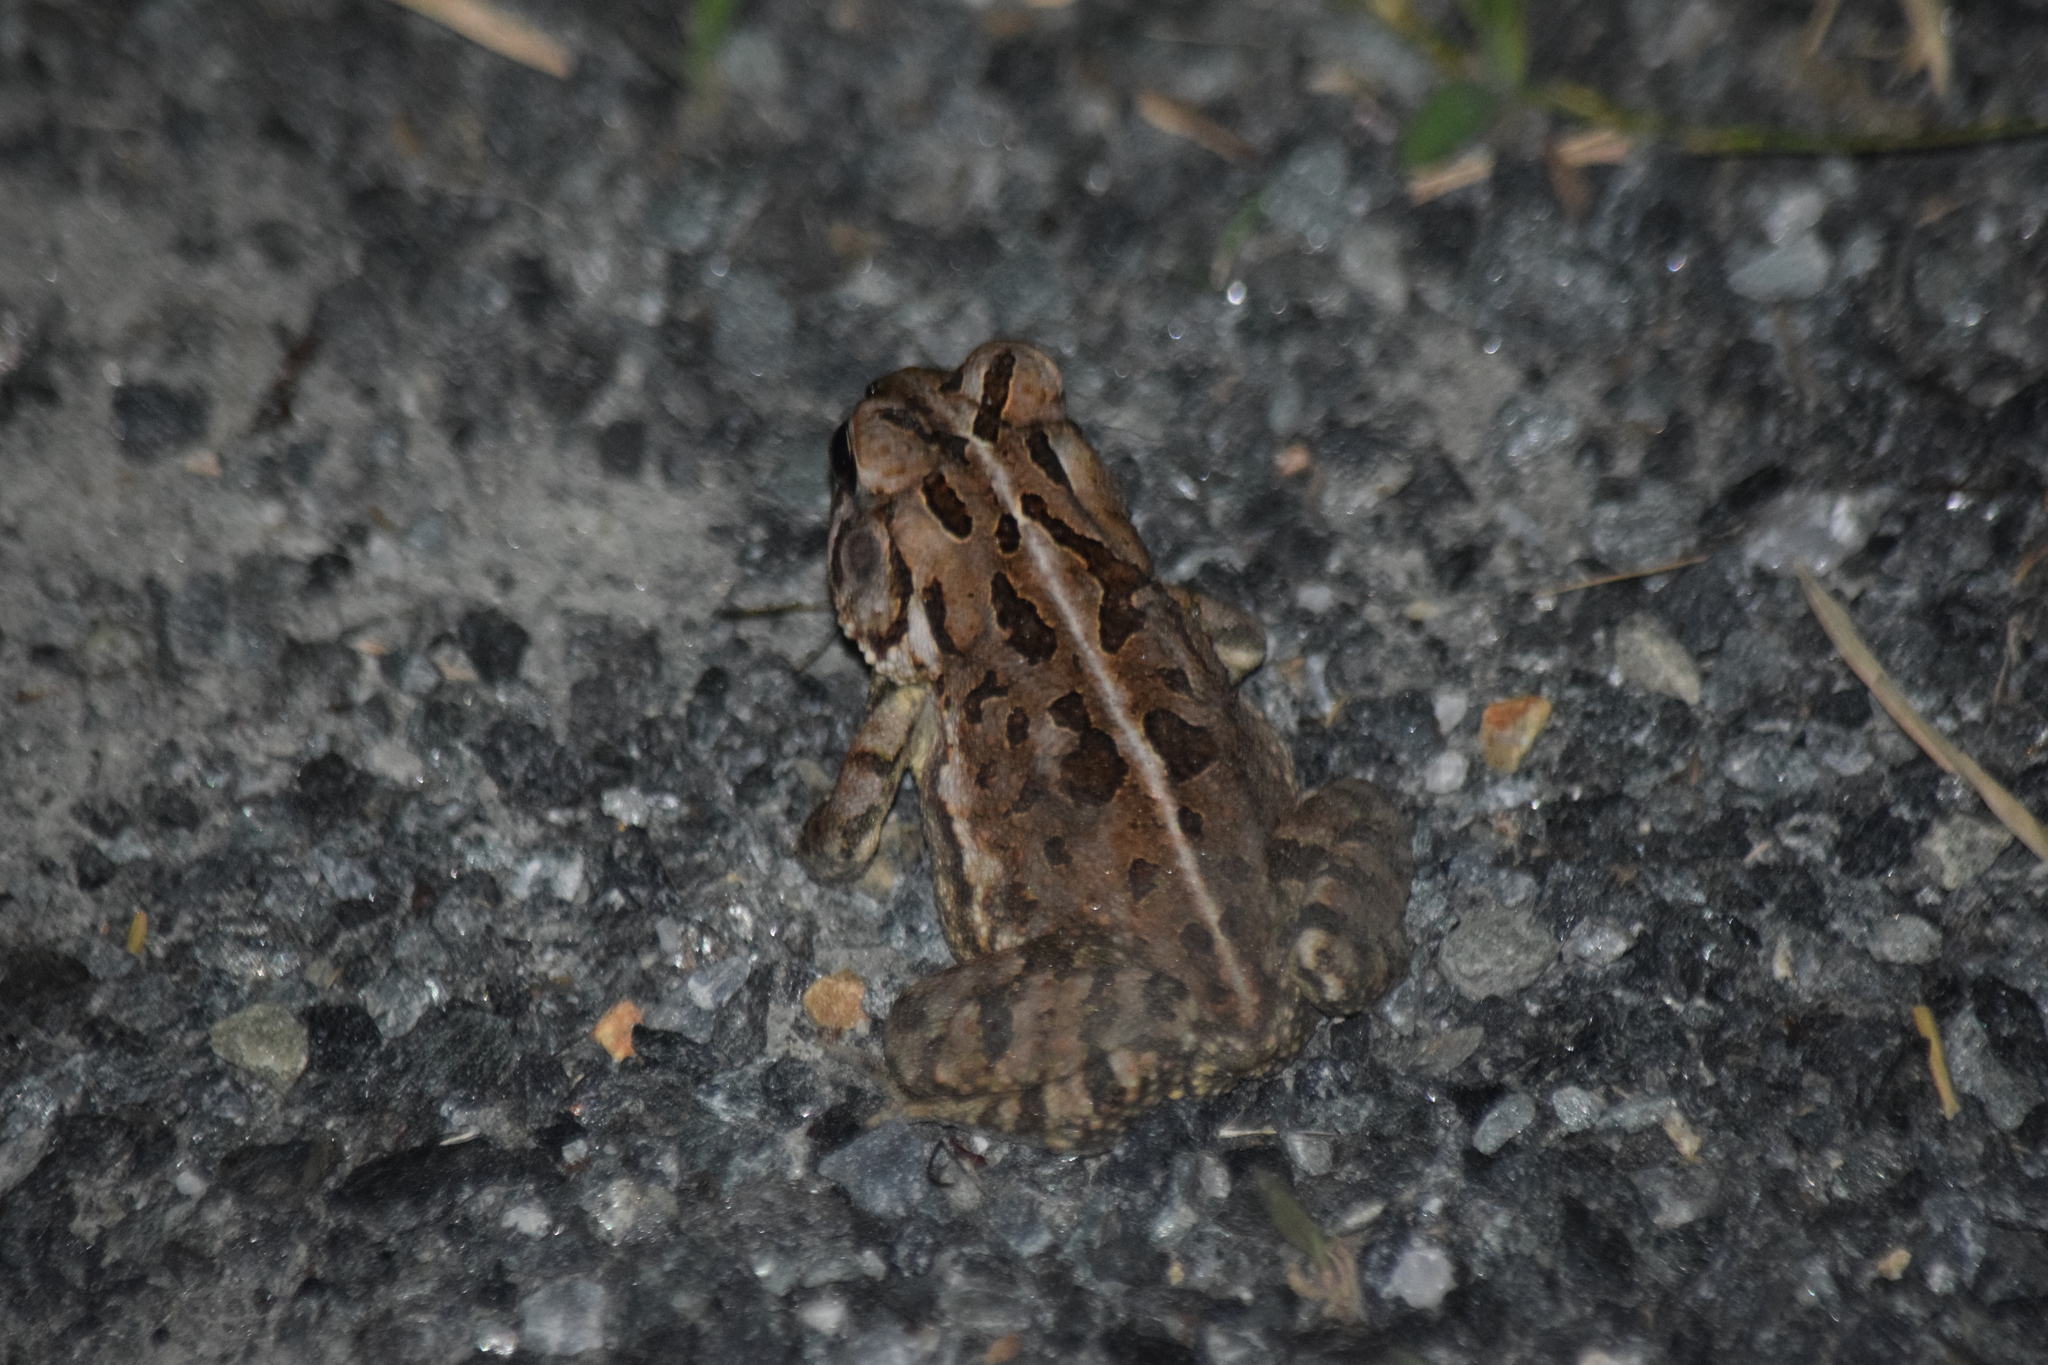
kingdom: Animalia
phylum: Chordata
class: Amphibia
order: Anura
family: Bufonidae
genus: Anaxyrus
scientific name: Anaxyrus fowleri
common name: Fowler's toad
